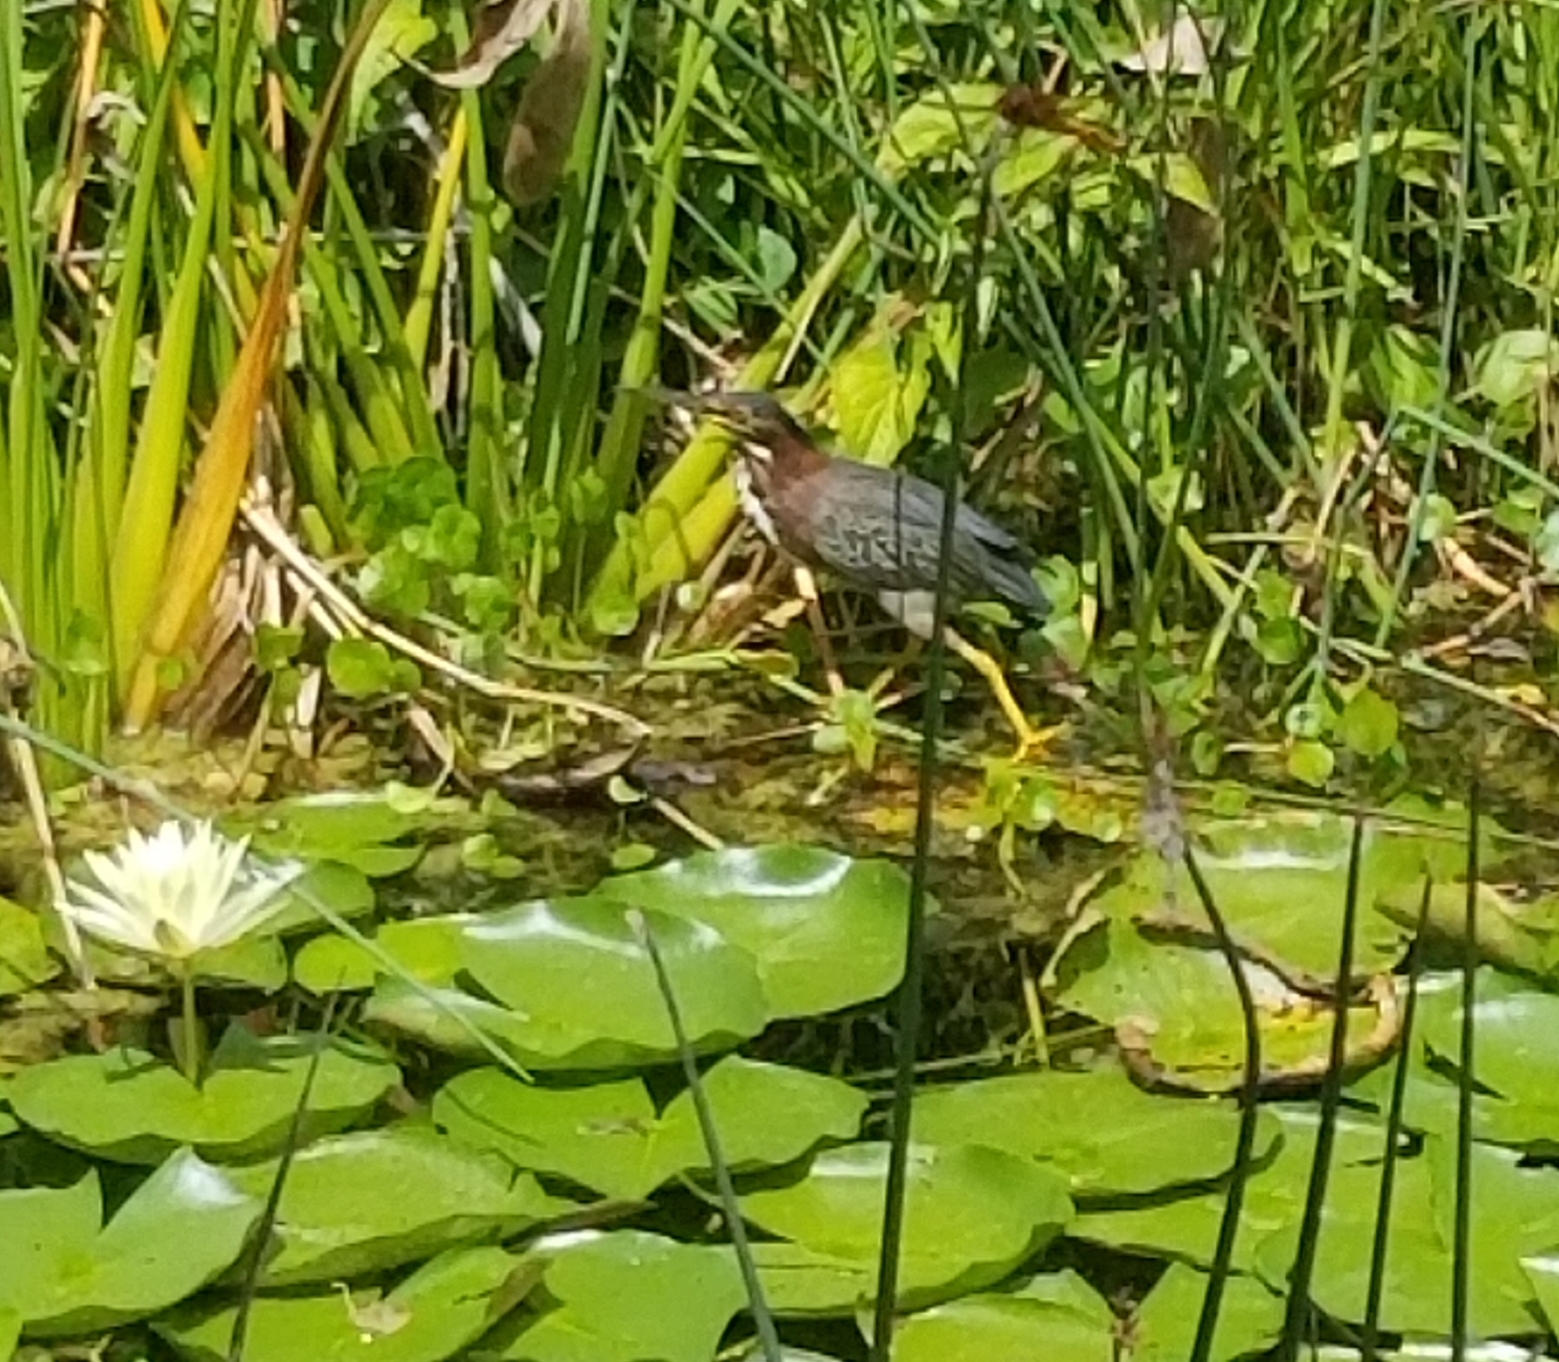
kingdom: Animalia
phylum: Chordata
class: Aves
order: Pelecaniformes
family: Ardeidae
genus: Butorides
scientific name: Butorides virescens
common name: Green heron
